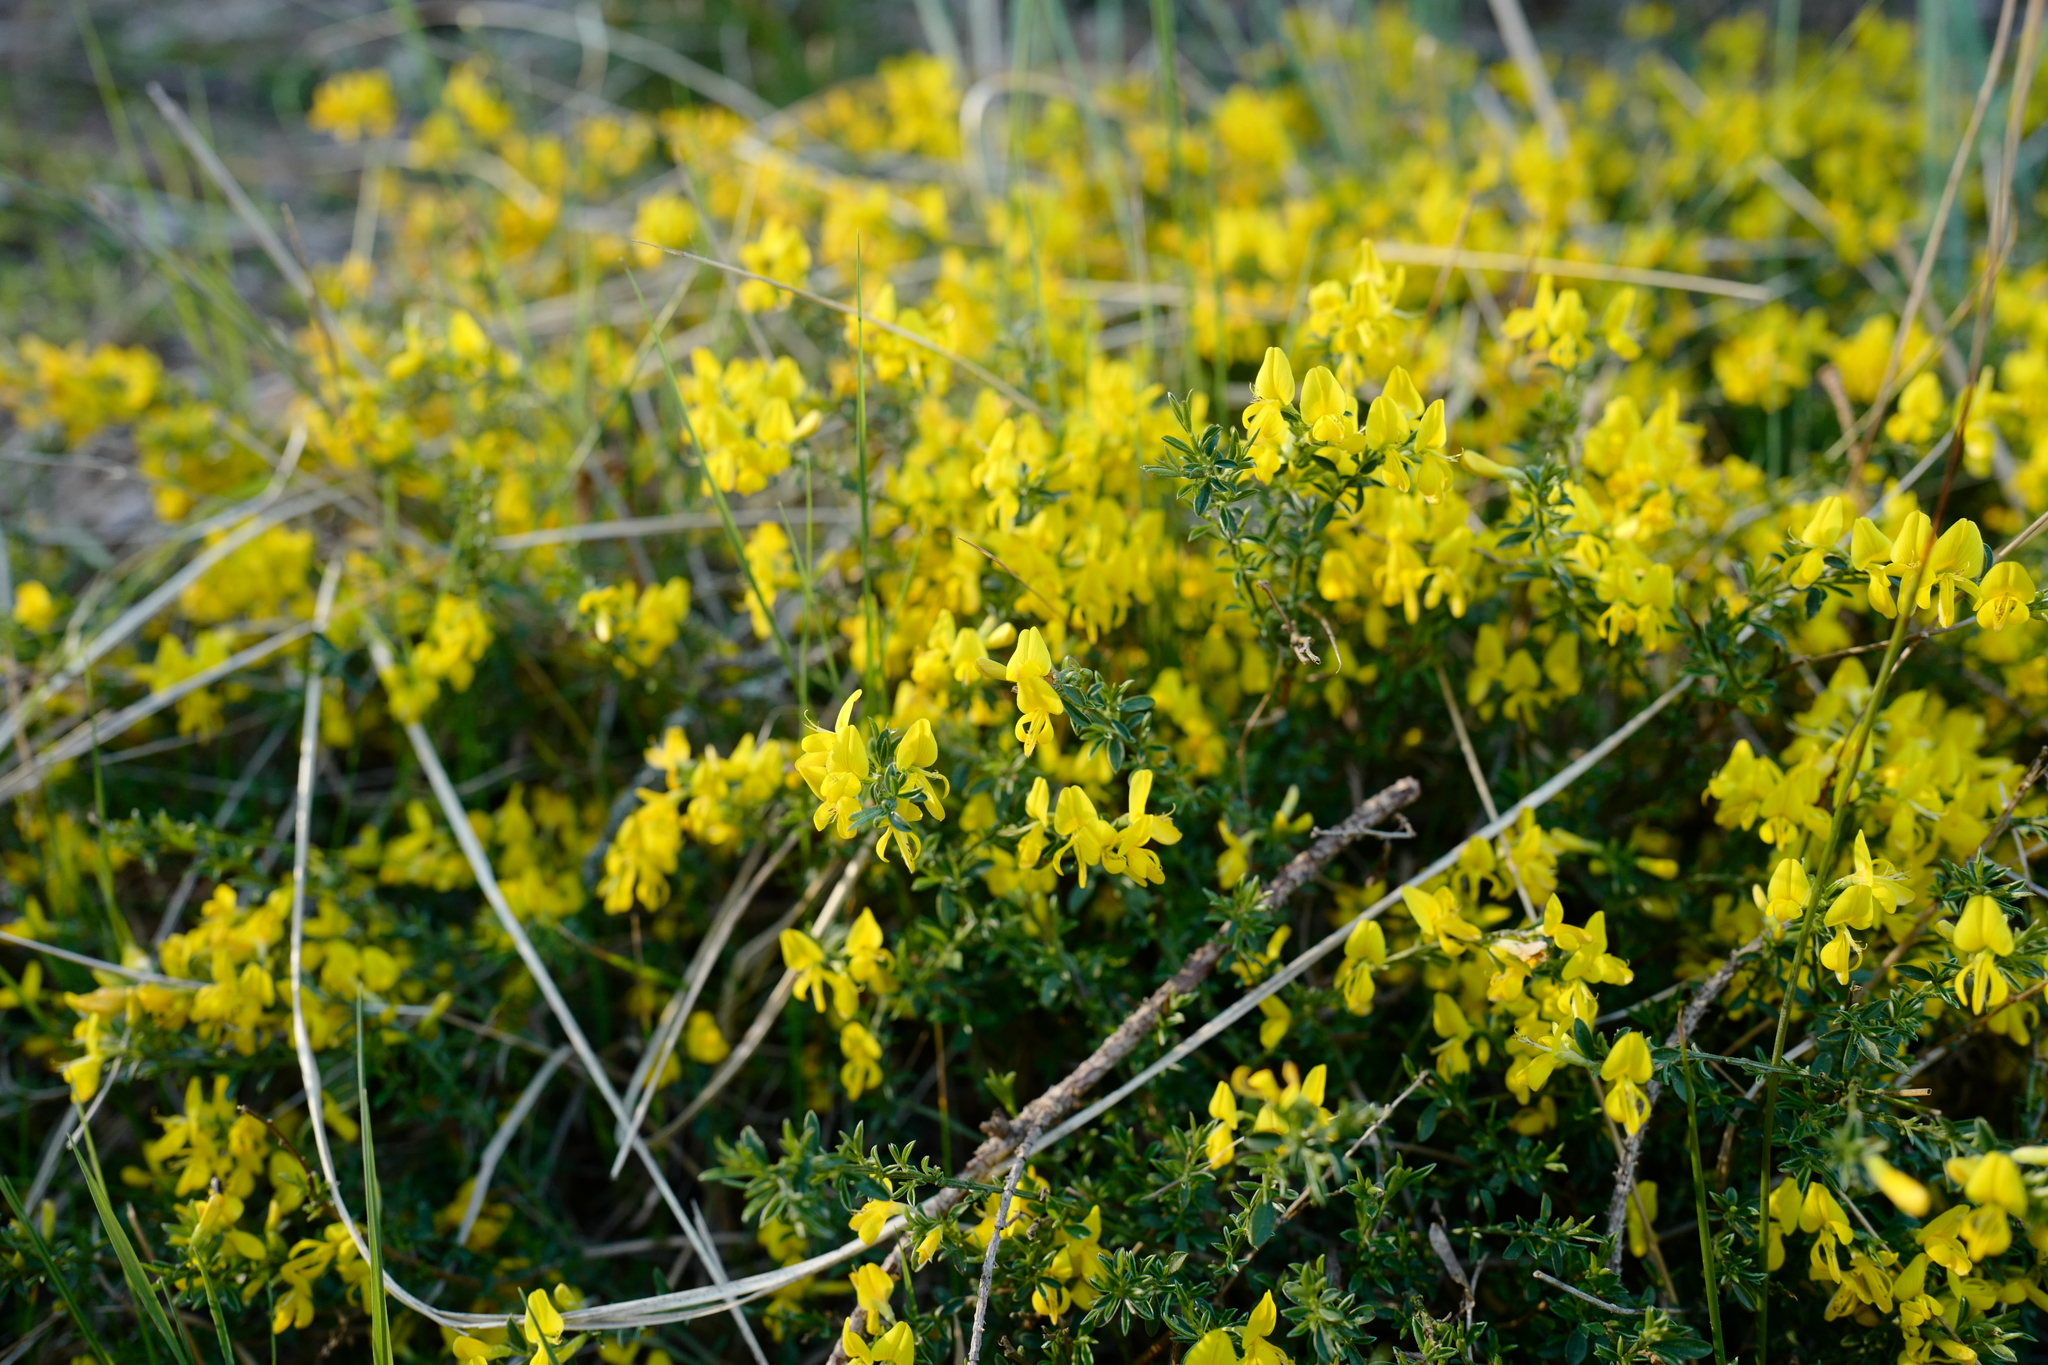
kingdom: Plantae
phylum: Tracheophyta
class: Magnoliopsida
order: Fabales
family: Fabaceae
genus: Genista
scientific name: Genista pilosa
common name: Hairy greenweed
